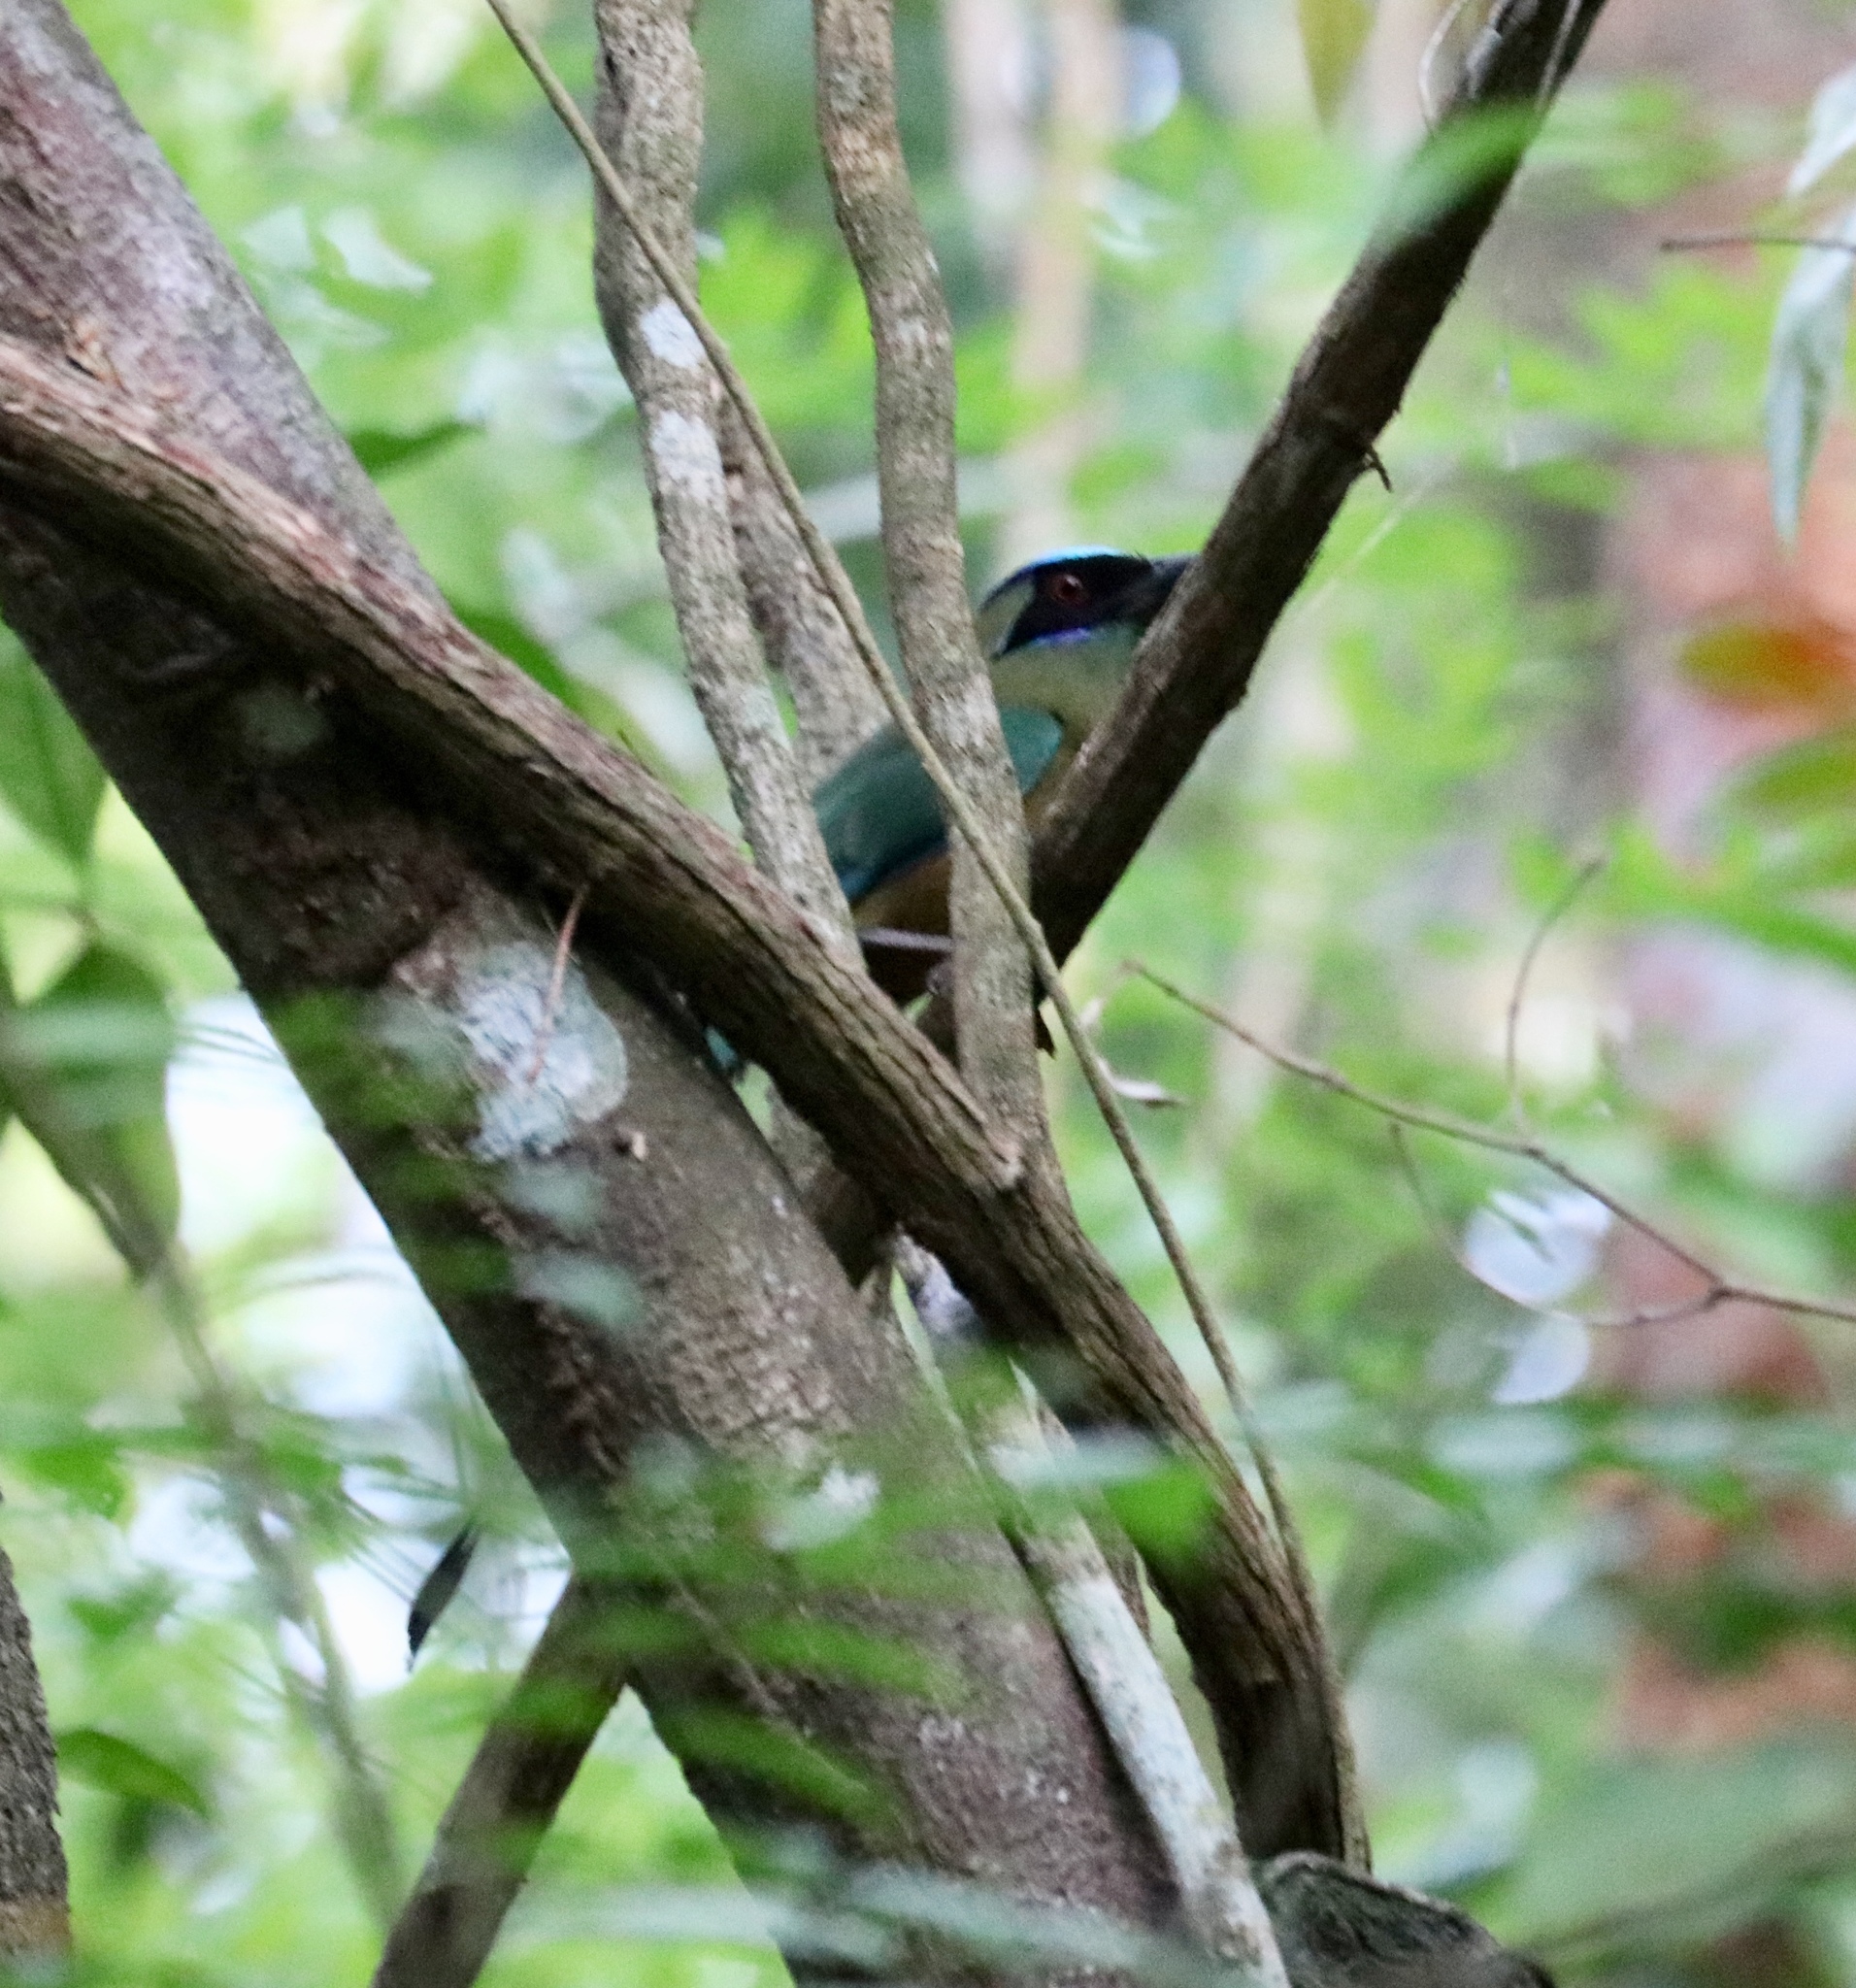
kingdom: Animalia
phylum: Chordata
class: Aves
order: Coraciiformes
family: Momotidae
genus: Momotus
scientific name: Momotus subrufescens
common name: Whooping motmot
